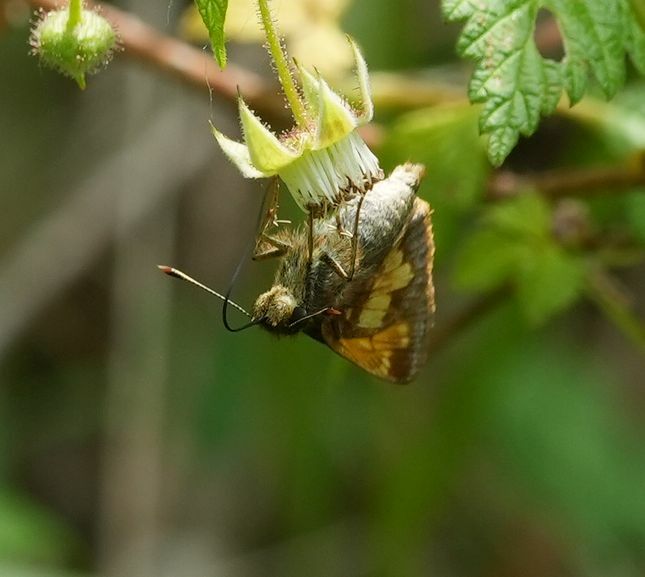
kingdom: Animalia
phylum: Arthropoda
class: Insecta
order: Lepidoptera
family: Hesperiidae
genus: Lon
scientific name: Lon hobomok
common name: Hobomok skipper
